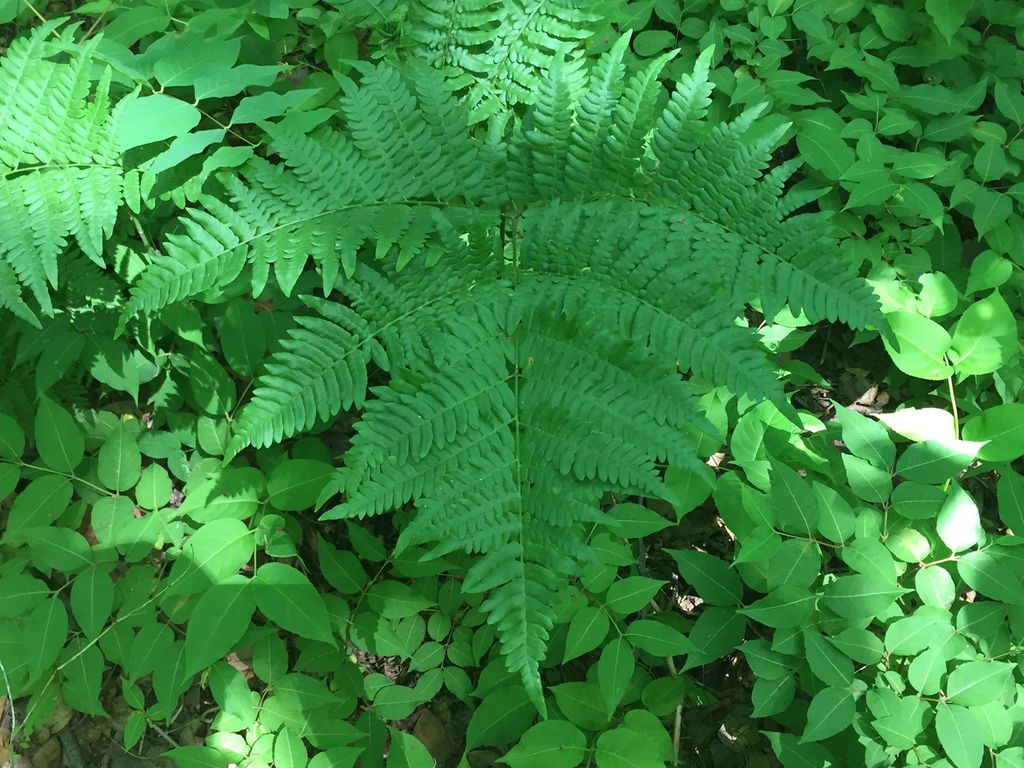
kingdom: Plantae
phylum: Tracheophyta
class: Polypodiopsida
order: Polypodiales
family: Dennstaedtiaceae
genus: Pteridium
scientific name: Pteridium aquilinum
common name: Bracken
